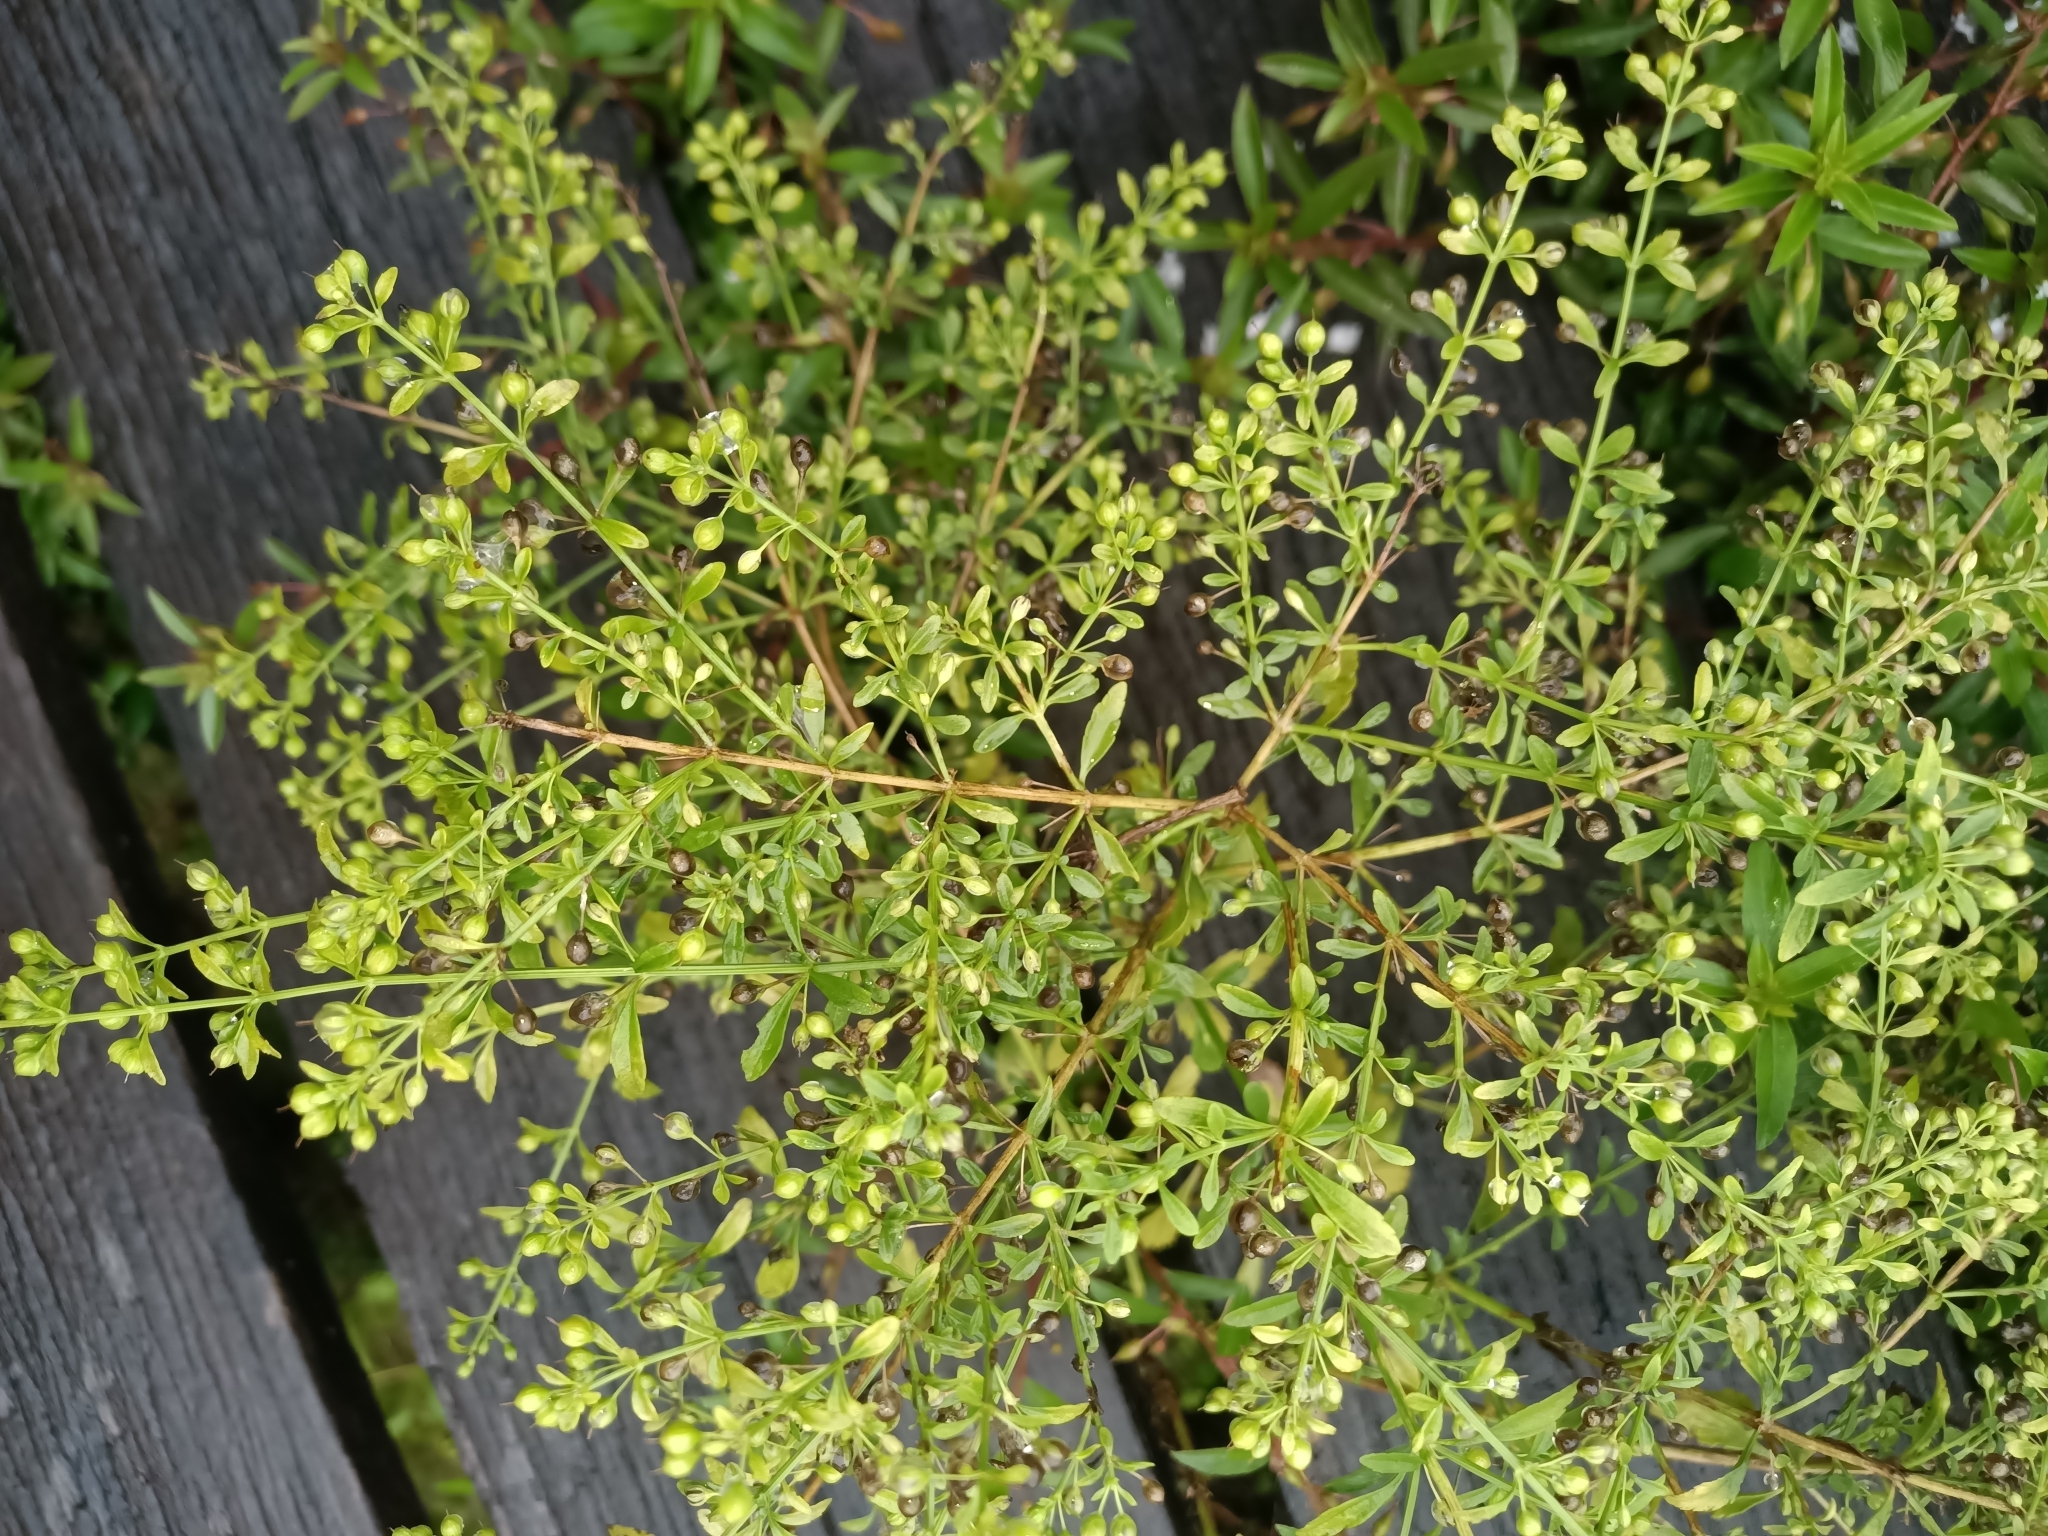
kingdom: Plantae
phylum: Tracheophyta
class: Magnoliopsida
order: Lamiales
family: Plantaginaceae
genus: Scoparia
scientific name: Scoparia dulcis
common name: Scoparia-weed
